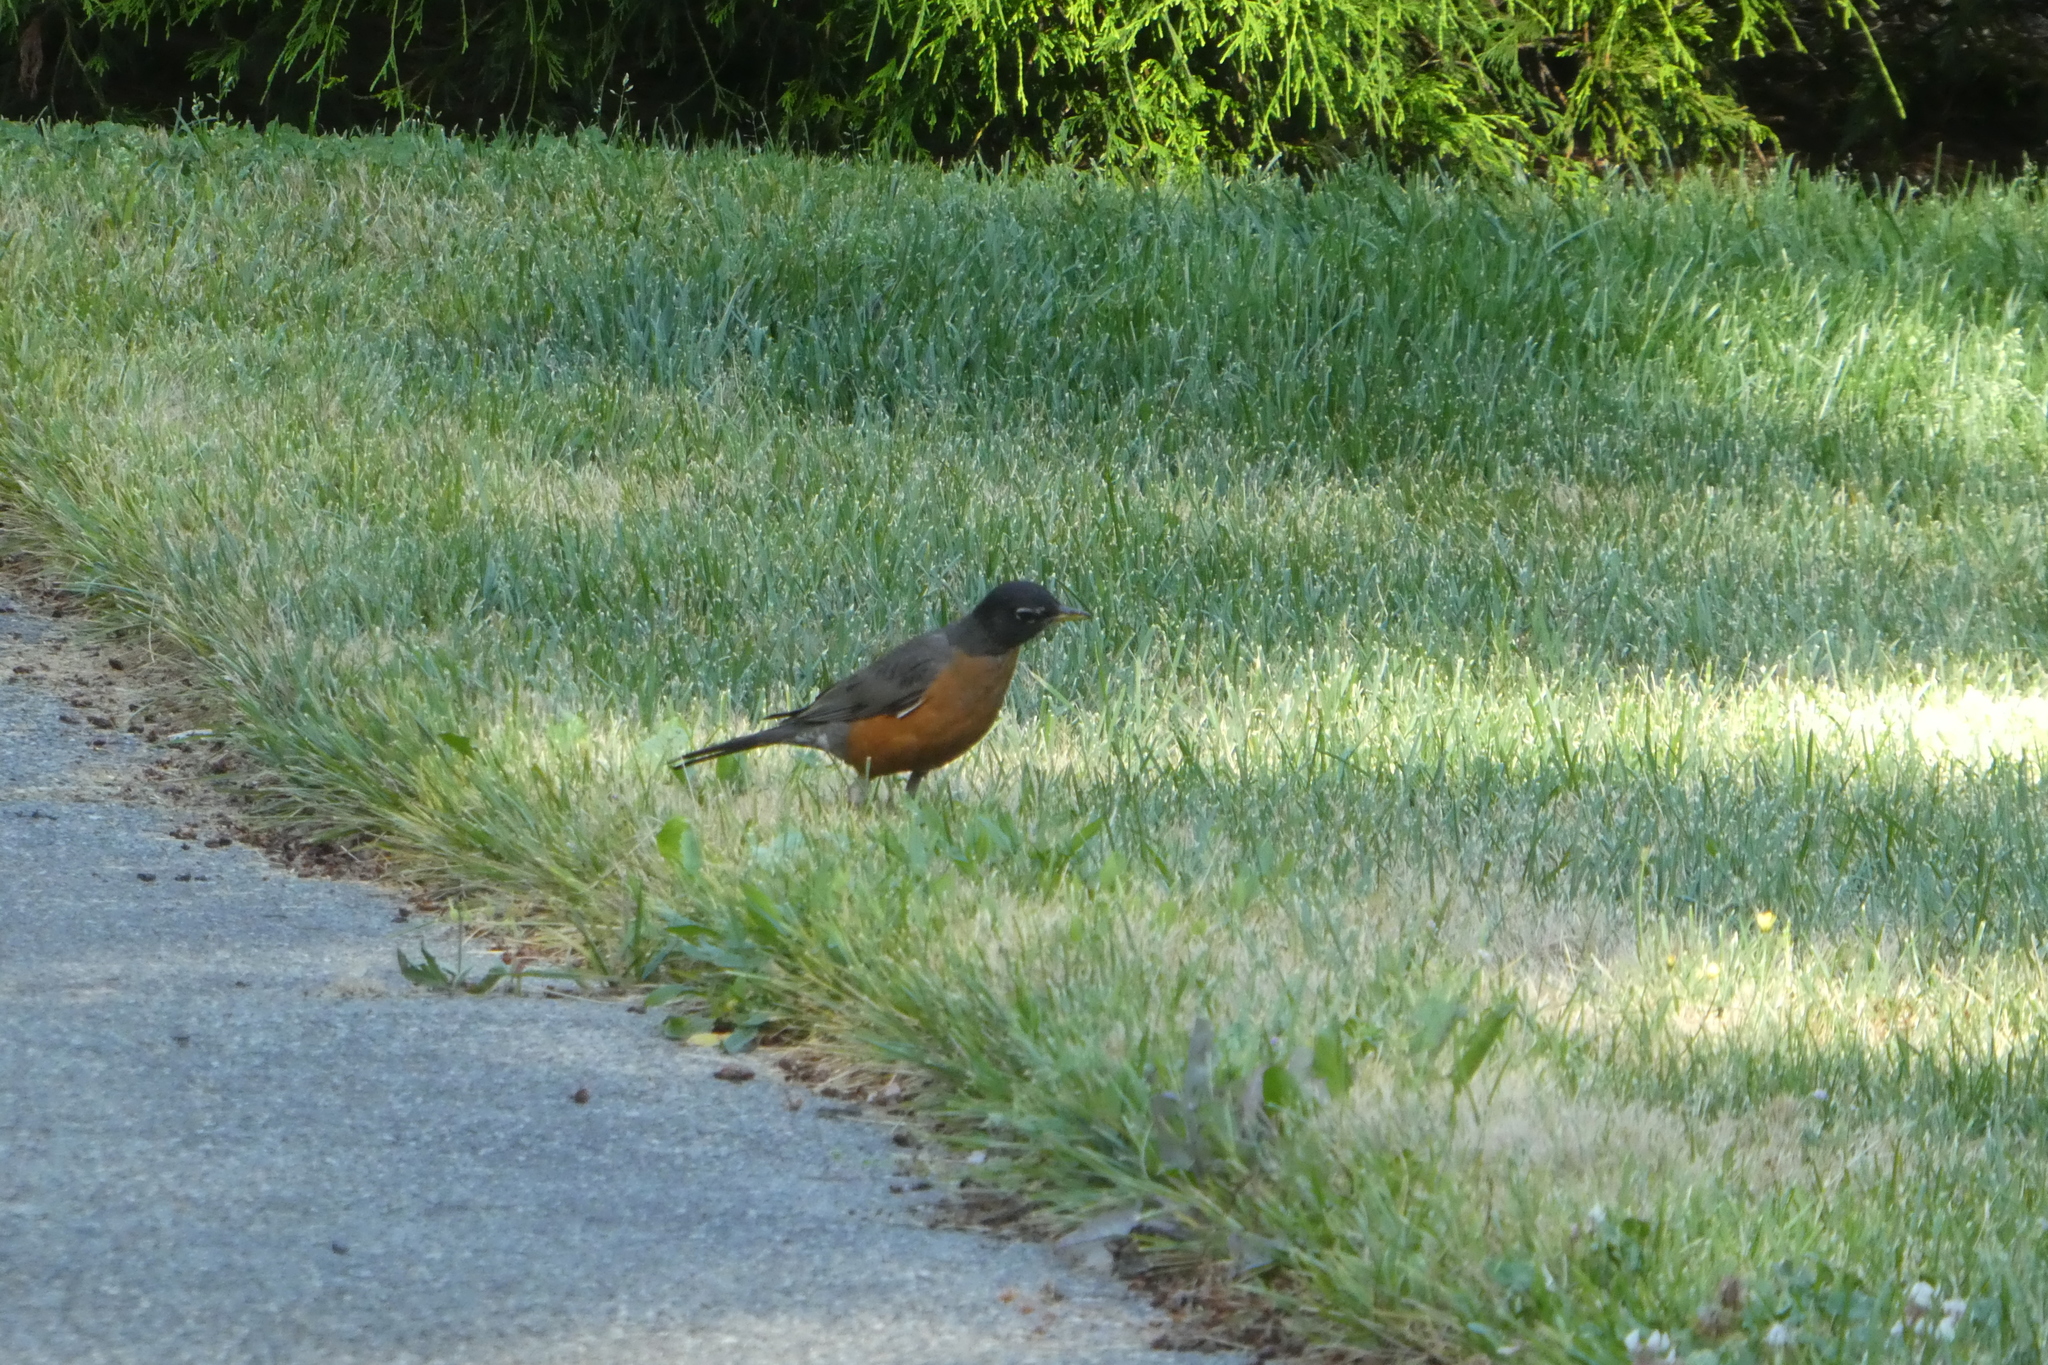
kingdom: Animalia
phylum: Chordata
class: Aves
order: Passeriformes
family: Turdidae
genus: Turdus
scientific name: Turdus migratorius
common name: American robin
